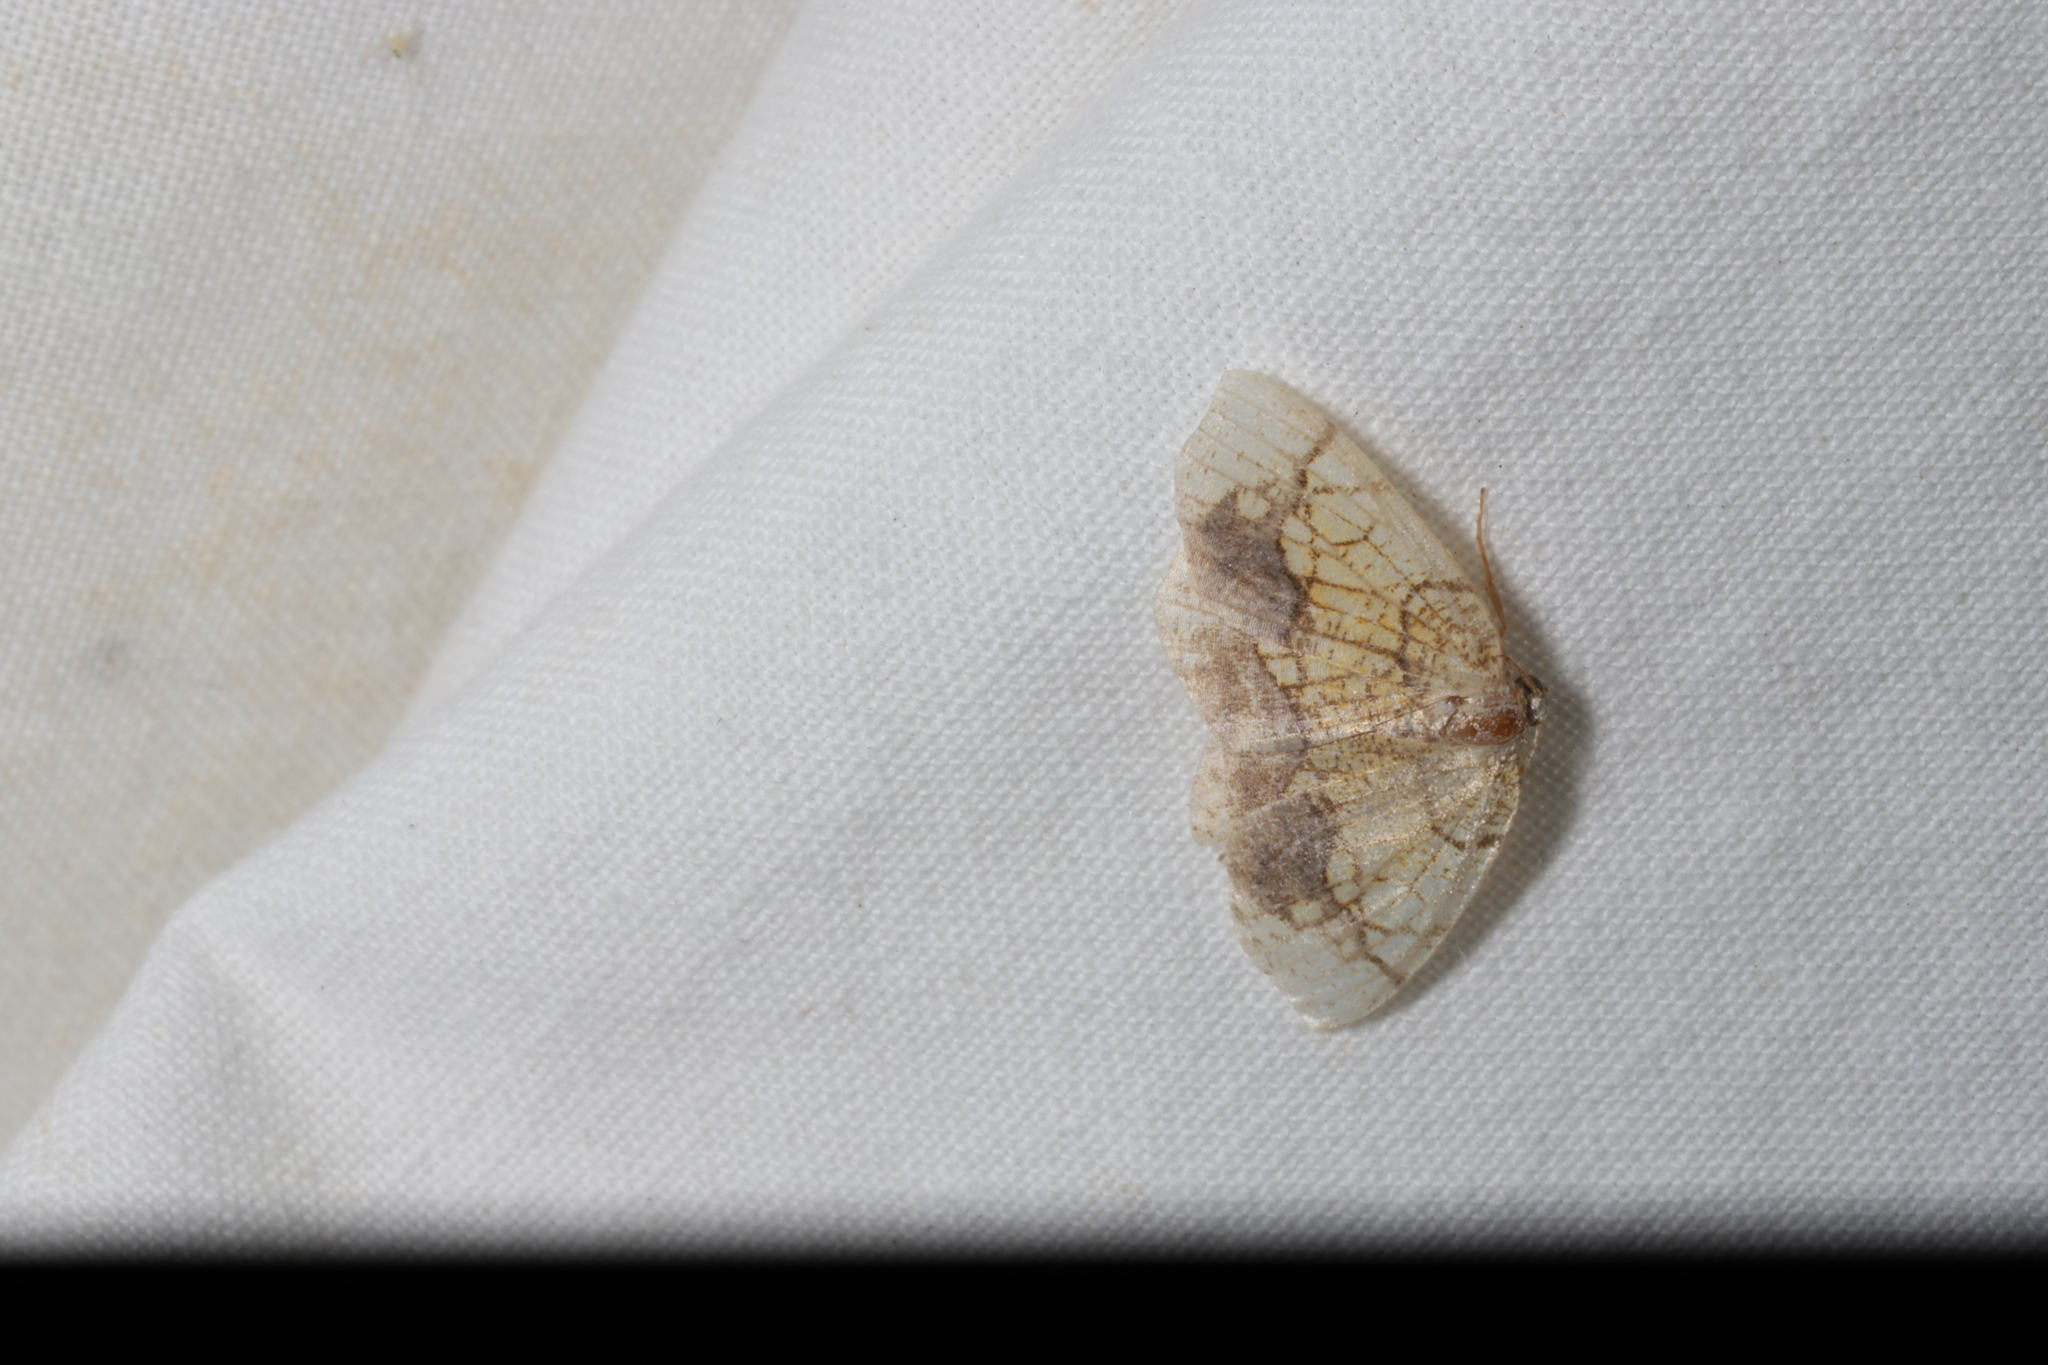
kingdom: Animalia
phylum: Arthropoda
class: Insecta
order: Lepidoptera
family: Geometridae
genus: Nematocampa
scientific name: Nematocampa resistaria
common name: Horned spanworm moth
